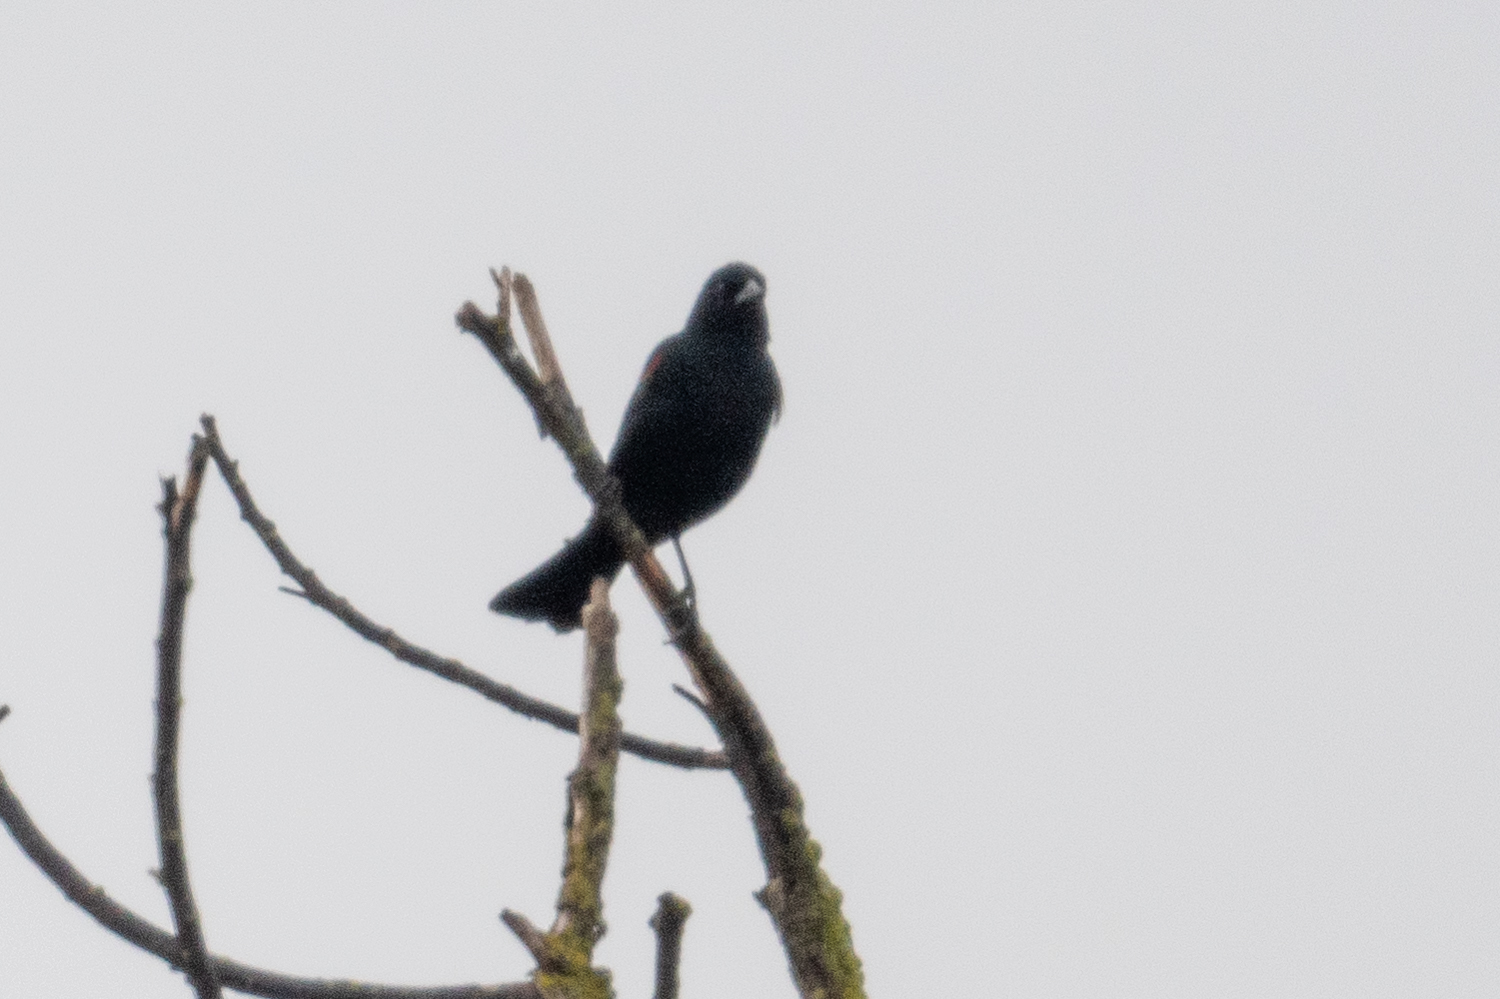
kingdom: Animalia
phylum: Chordata
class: Aves
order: Passeriformes
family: Icteridae
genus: Agelaius
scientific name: Agelaius phoeniceus
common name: Red-winged blackbird
